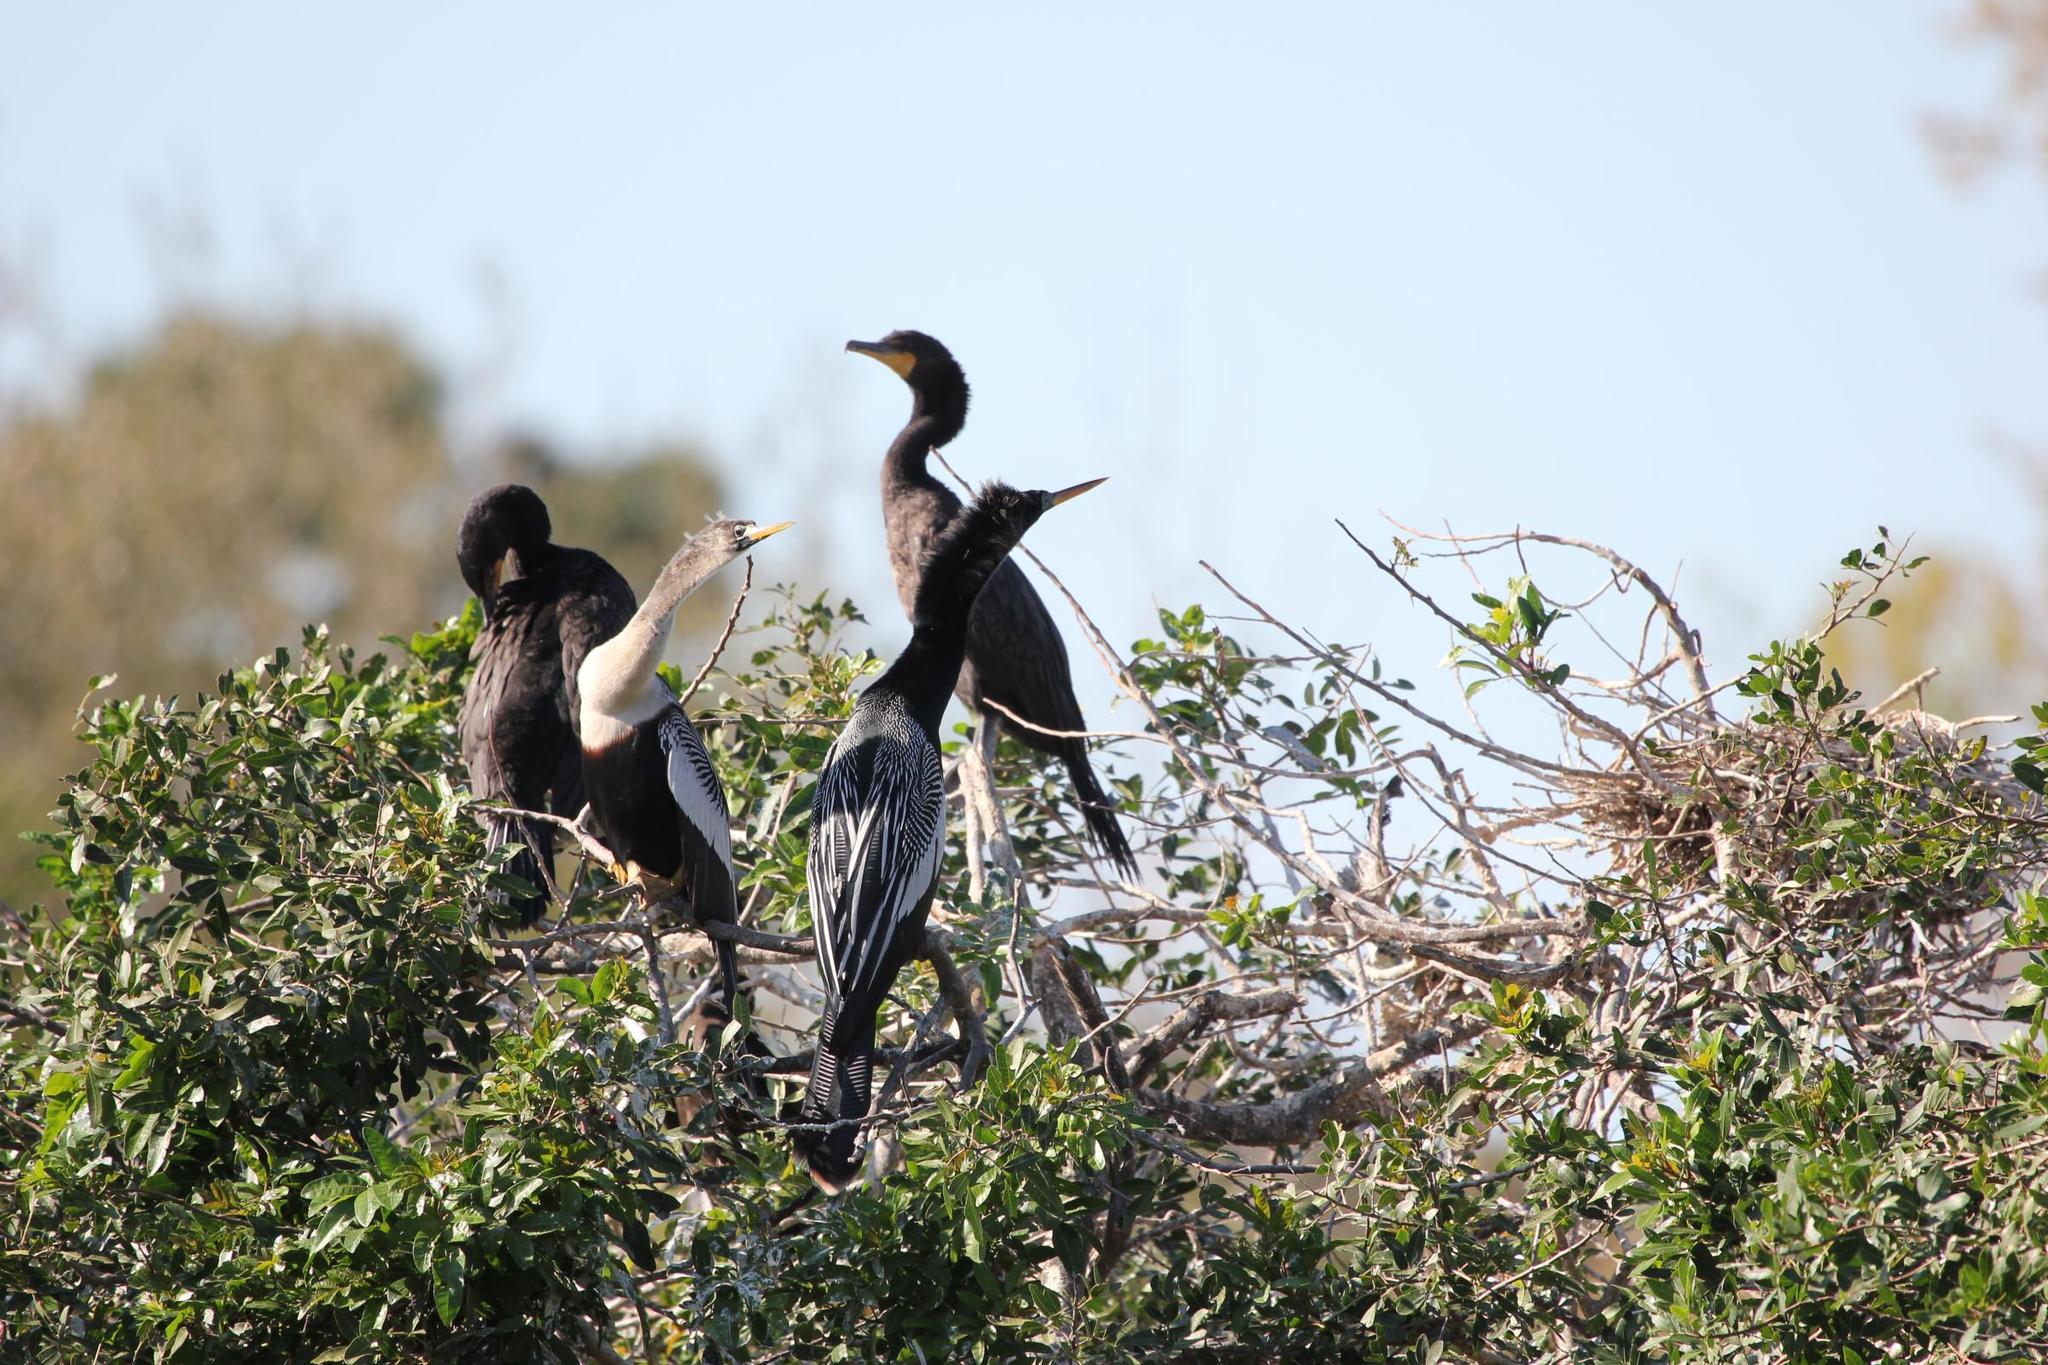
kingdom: Animalia
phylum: Chordata
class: Aves
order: Suliformes
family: Anhingidae
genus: Anhinga
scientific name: Anhinga anhinga
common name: Anhinga
